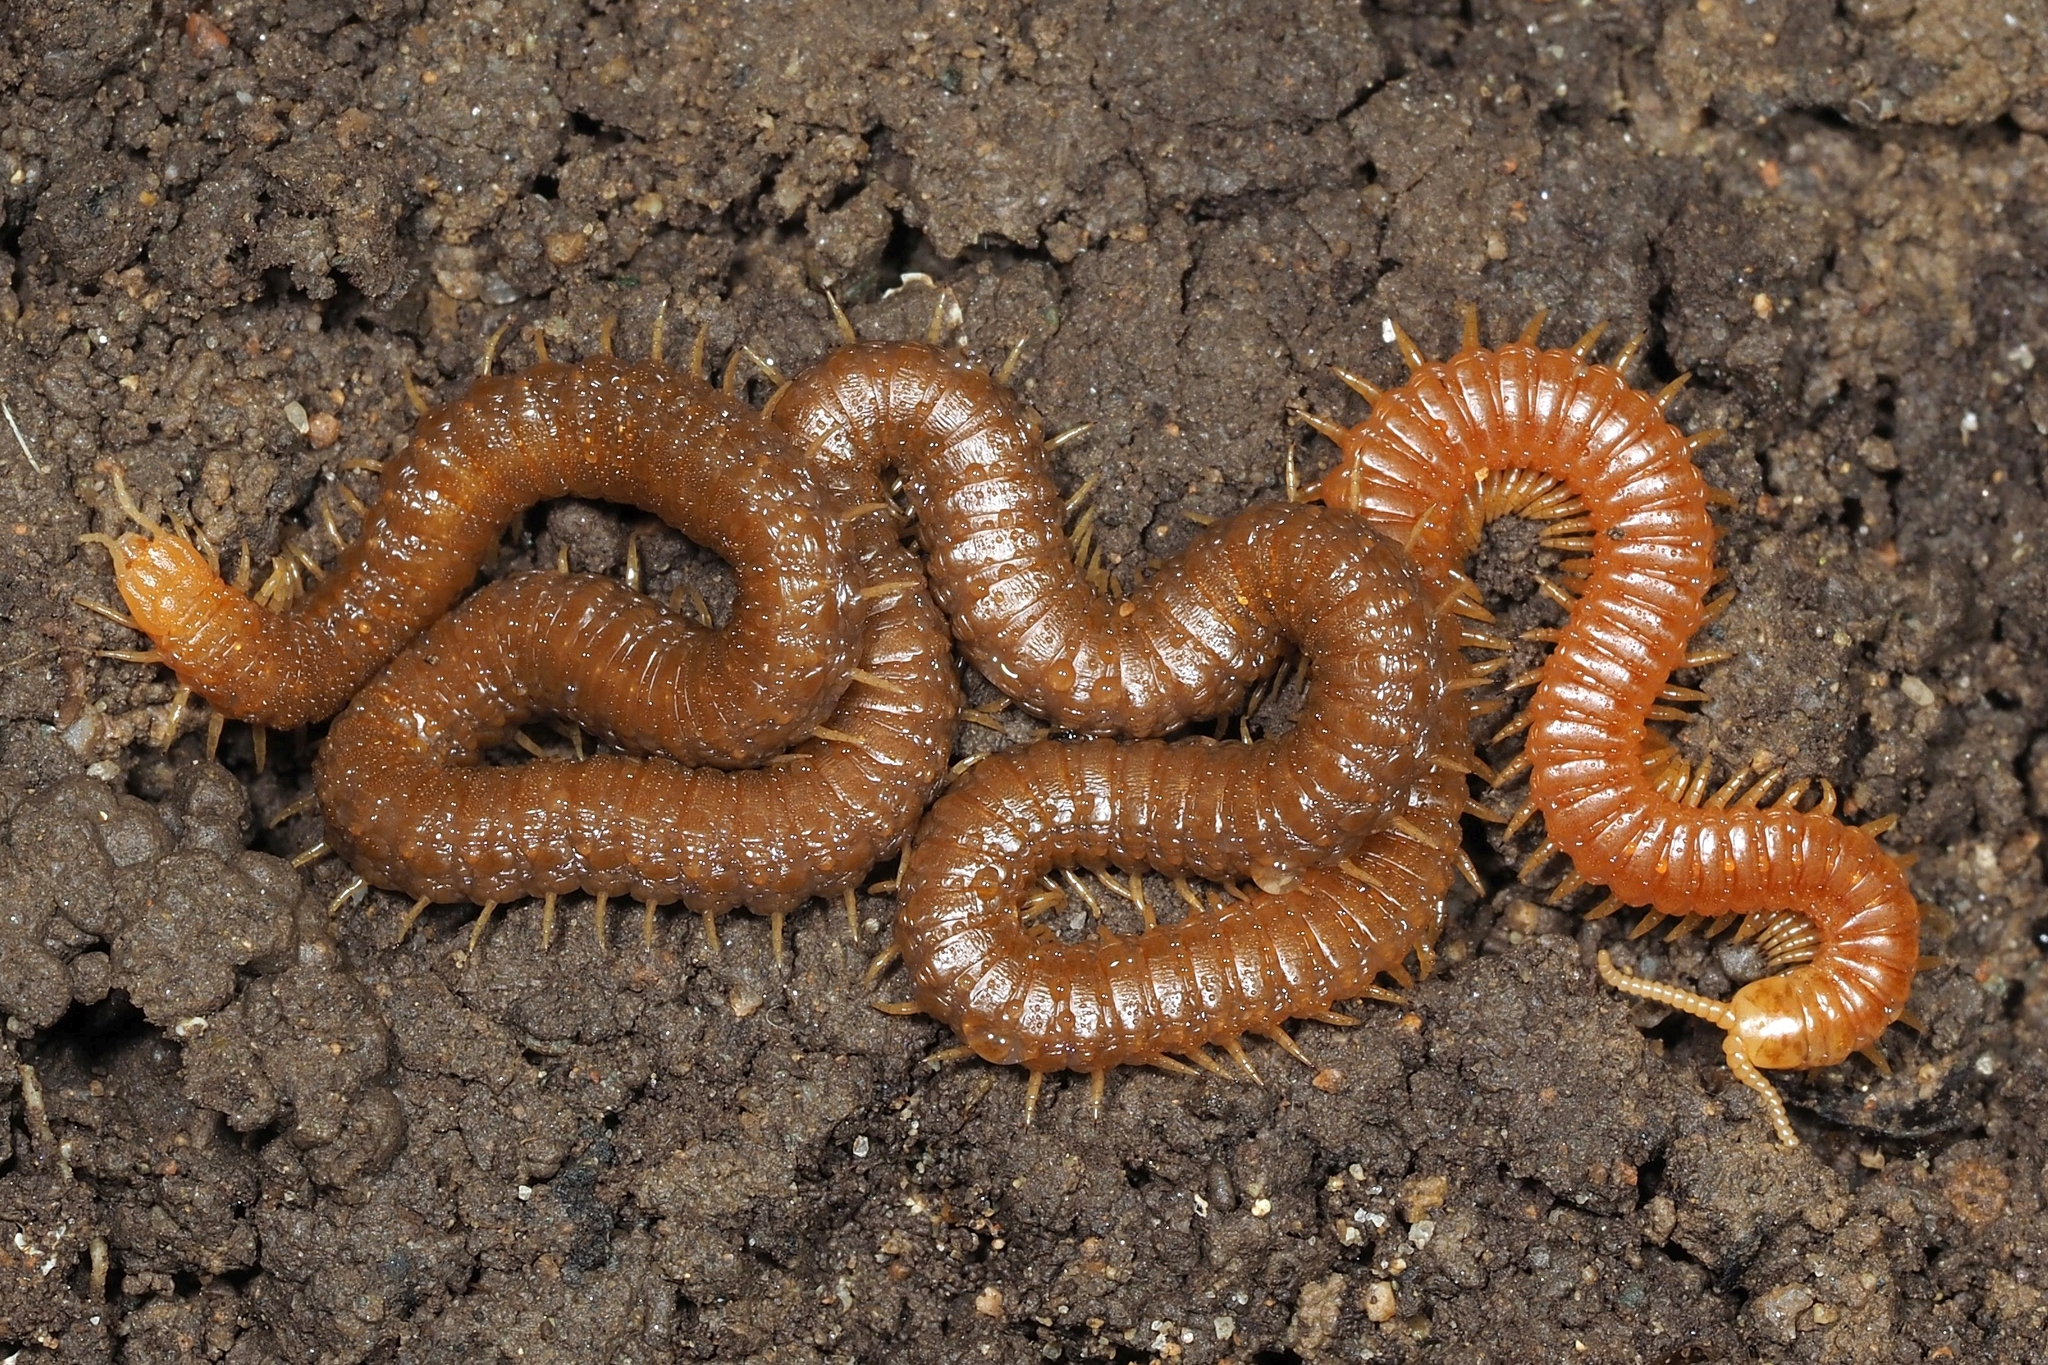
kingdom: Animalia
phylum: Arthropoda
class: Chilopoda
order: Geophilomorpha
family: Himantariidae
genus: Himantarium
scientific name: Himantarium gabrielis
